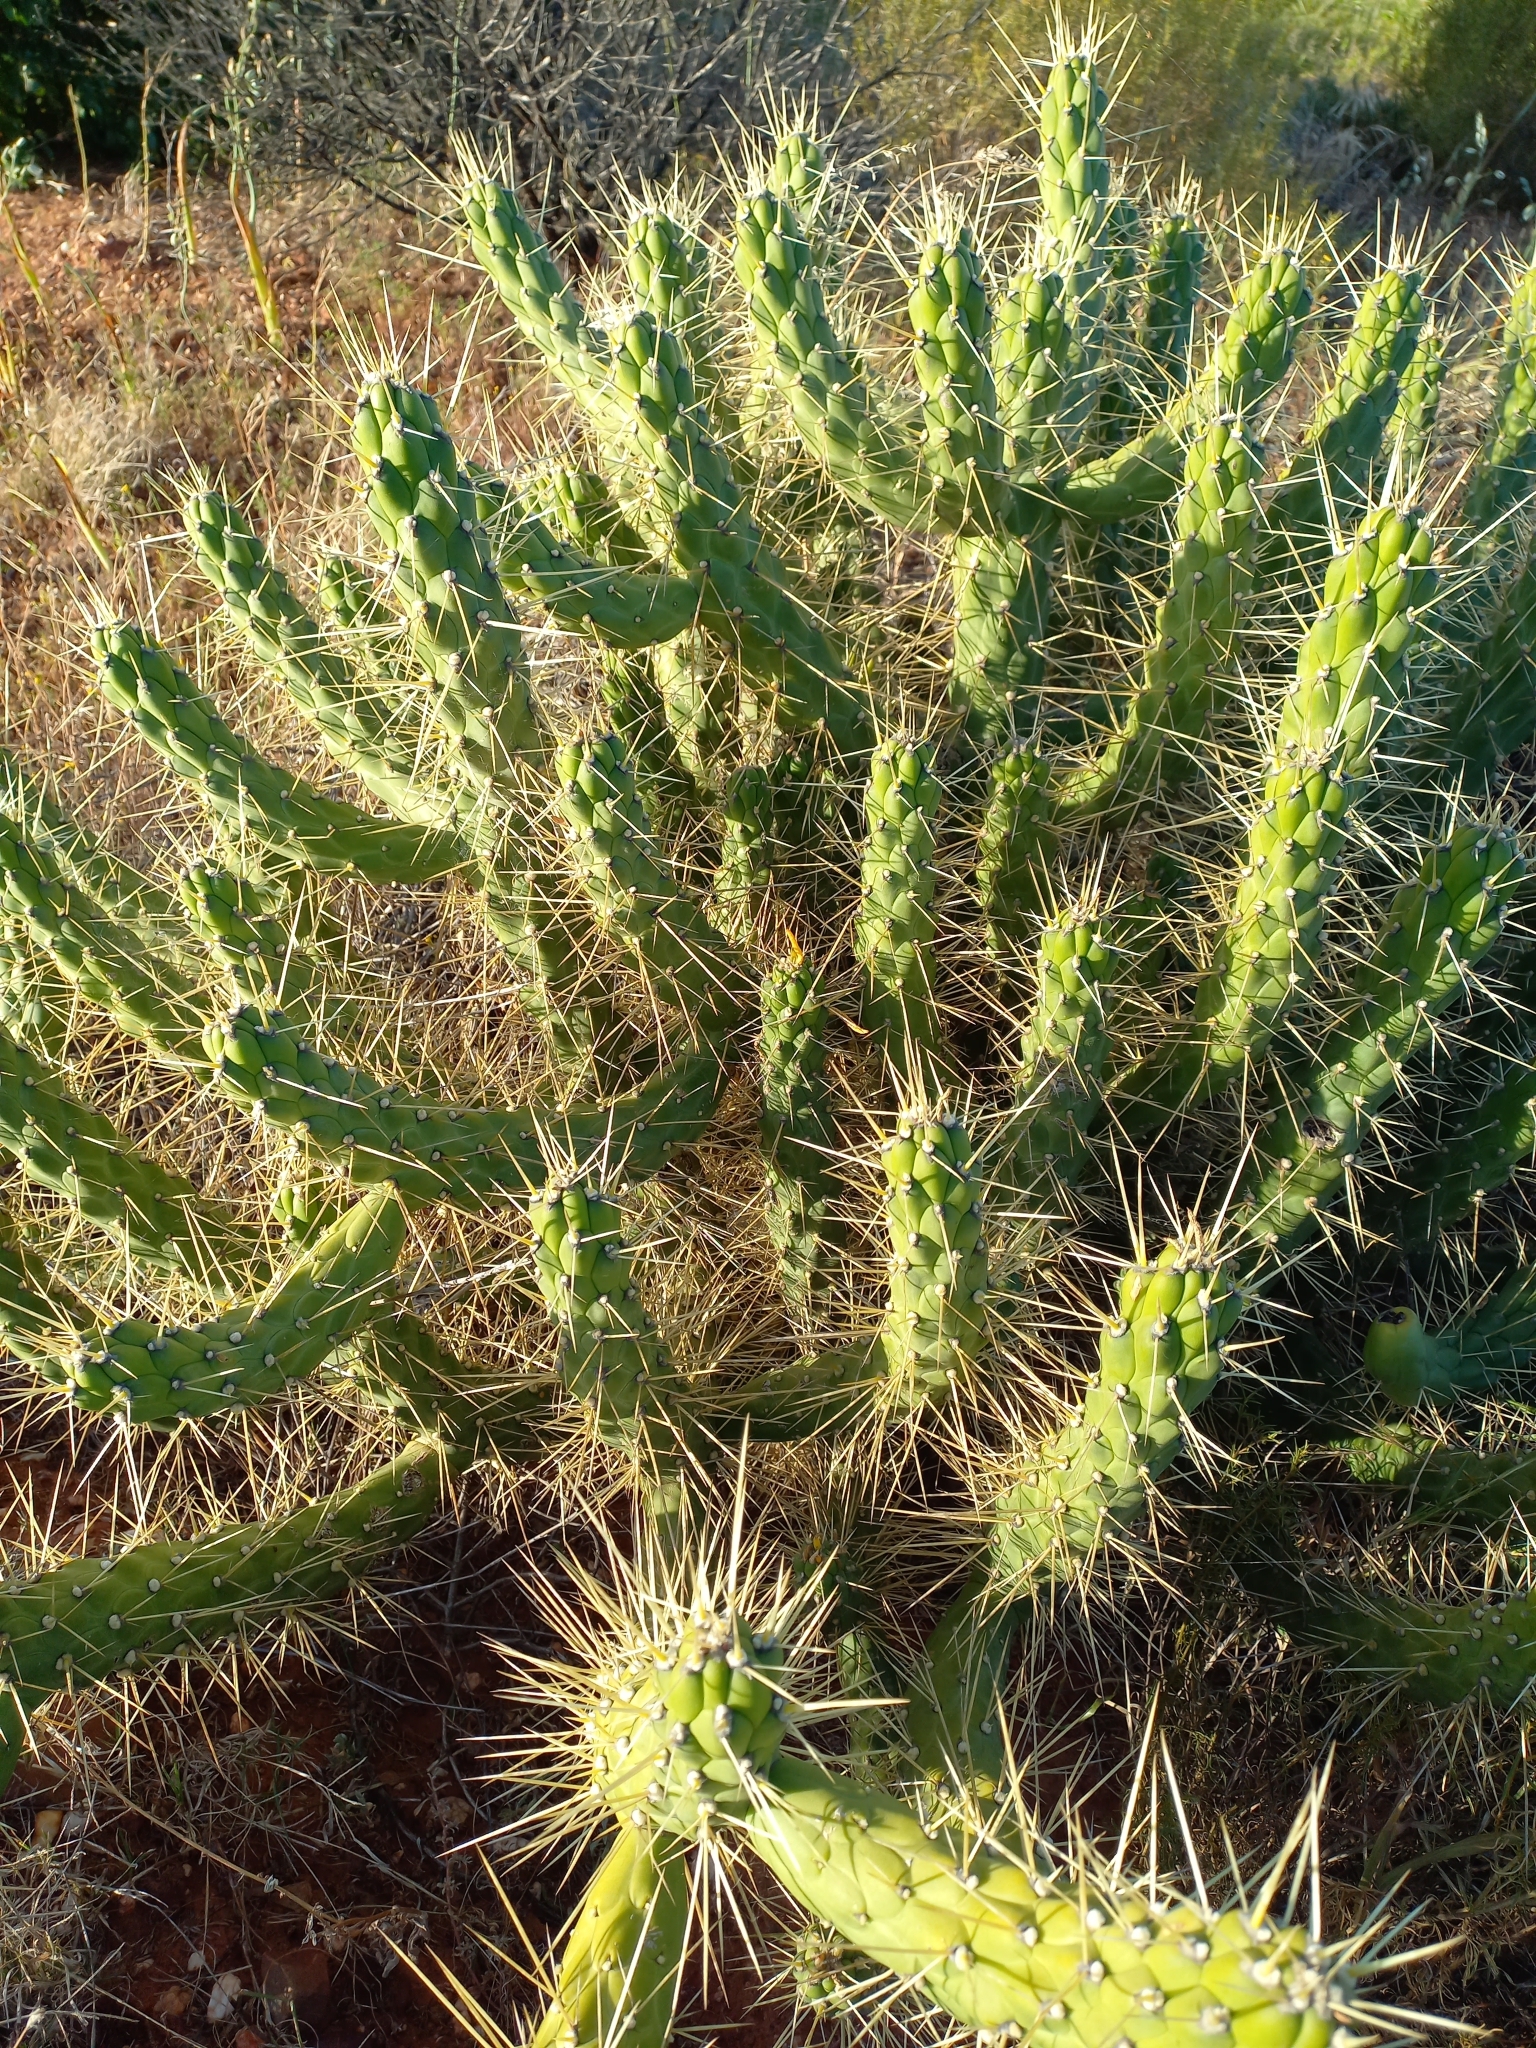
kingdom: Plantae
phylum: Tracheophyta
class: Magnoliopsida
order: Caryophyllales
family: Cactaceae
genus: Austrocylindropuntia
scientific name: Austrocylindropuntia subulata
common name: Eve's needle cactus
